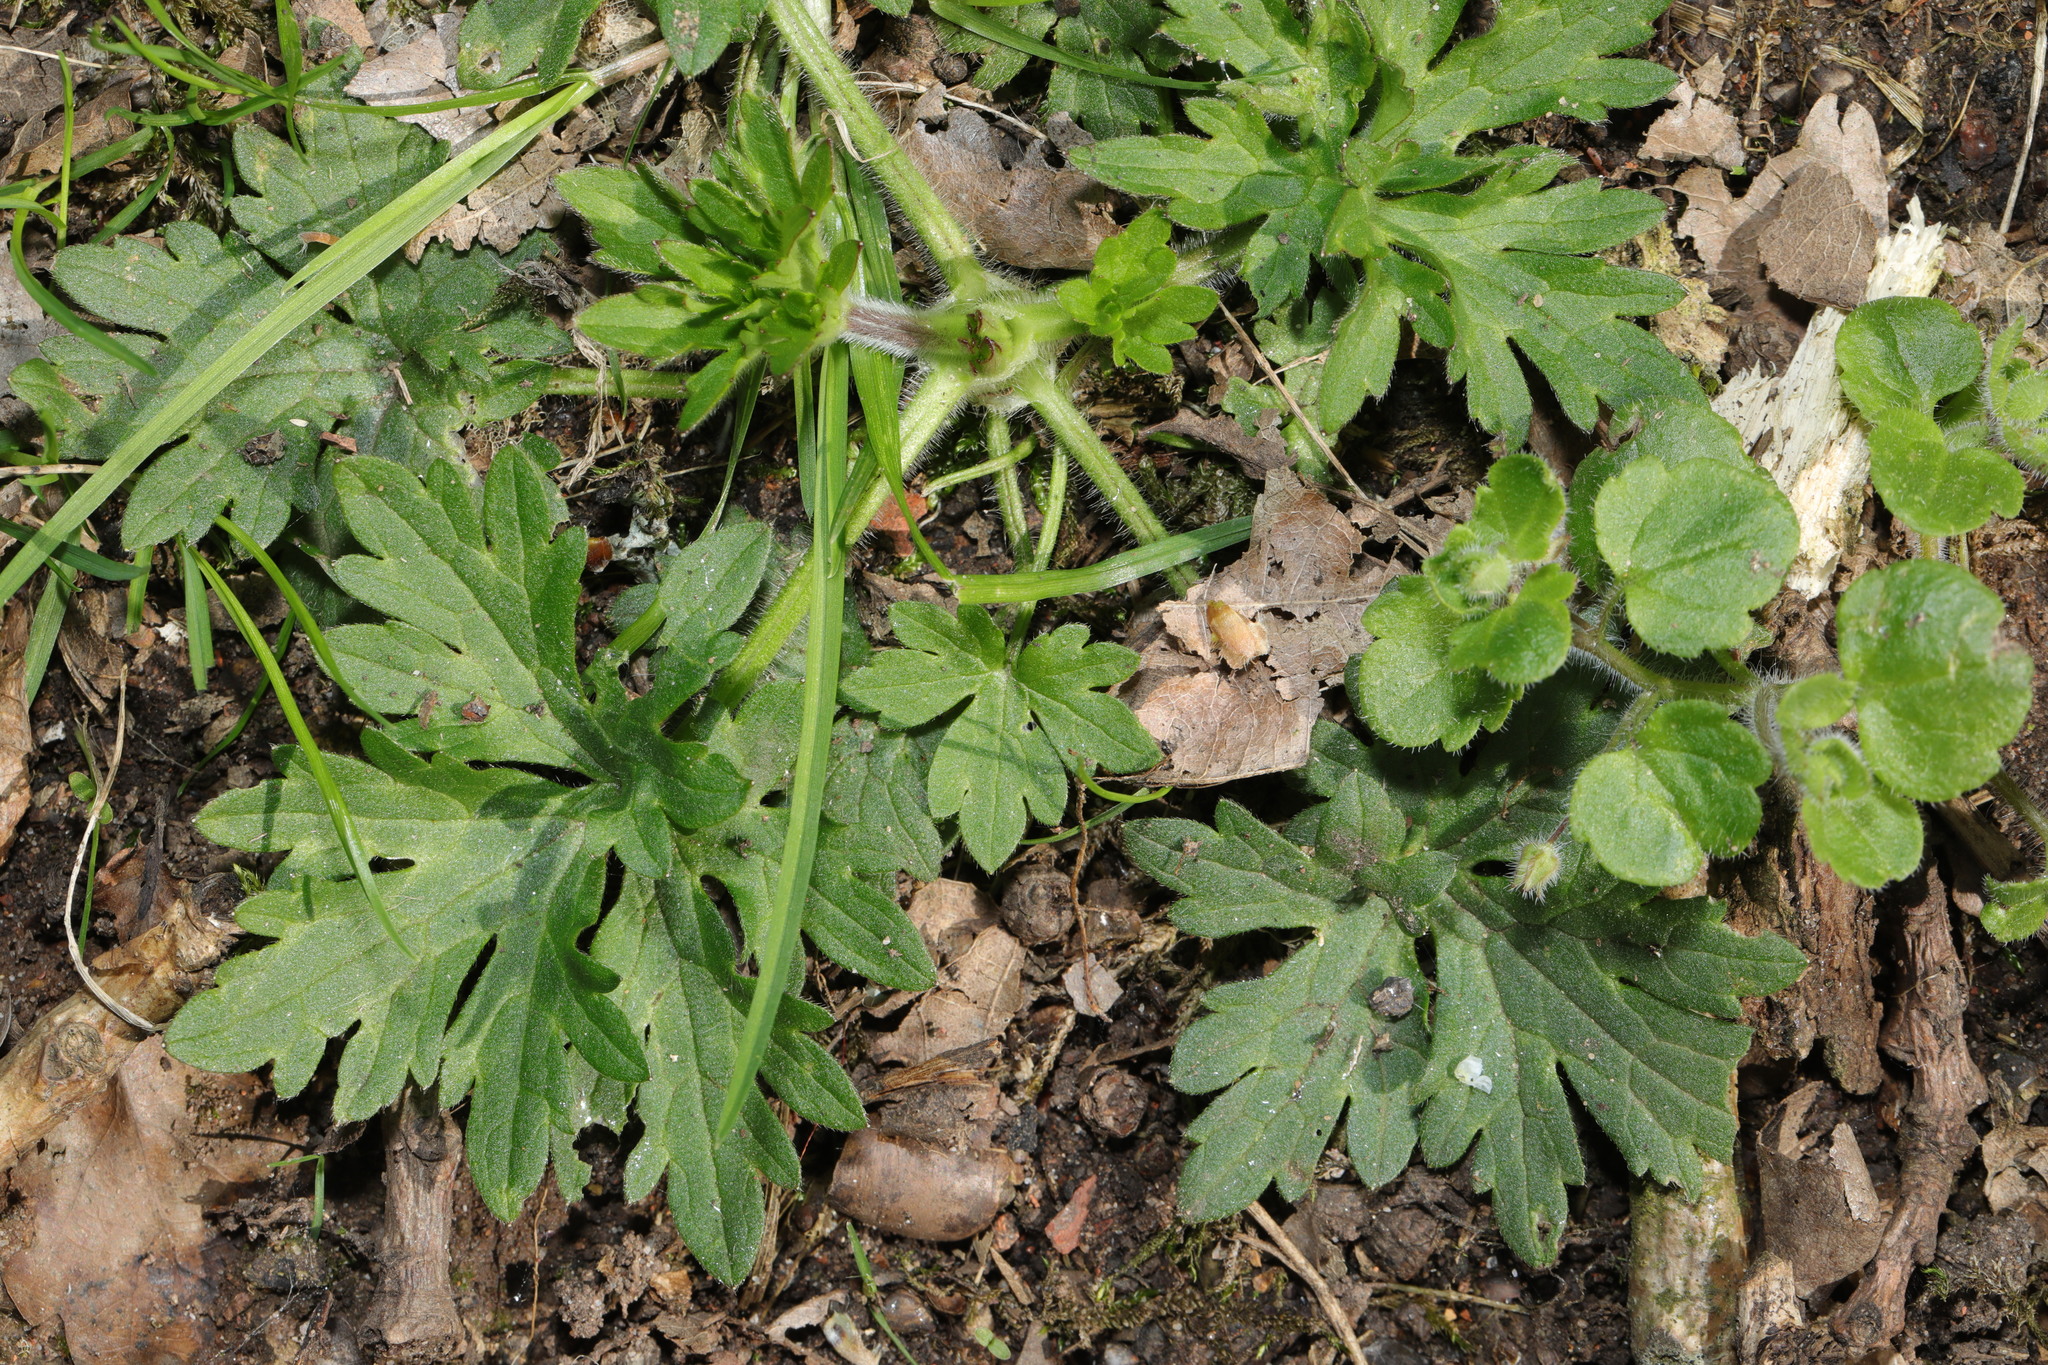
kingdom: Plantae
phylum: Tracheophyta
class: Magnoliopsida
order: Ranunculales
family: Ranunculaceae
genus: Ranunculus
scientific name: Ranunculus repens
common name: Creeping buttercup
